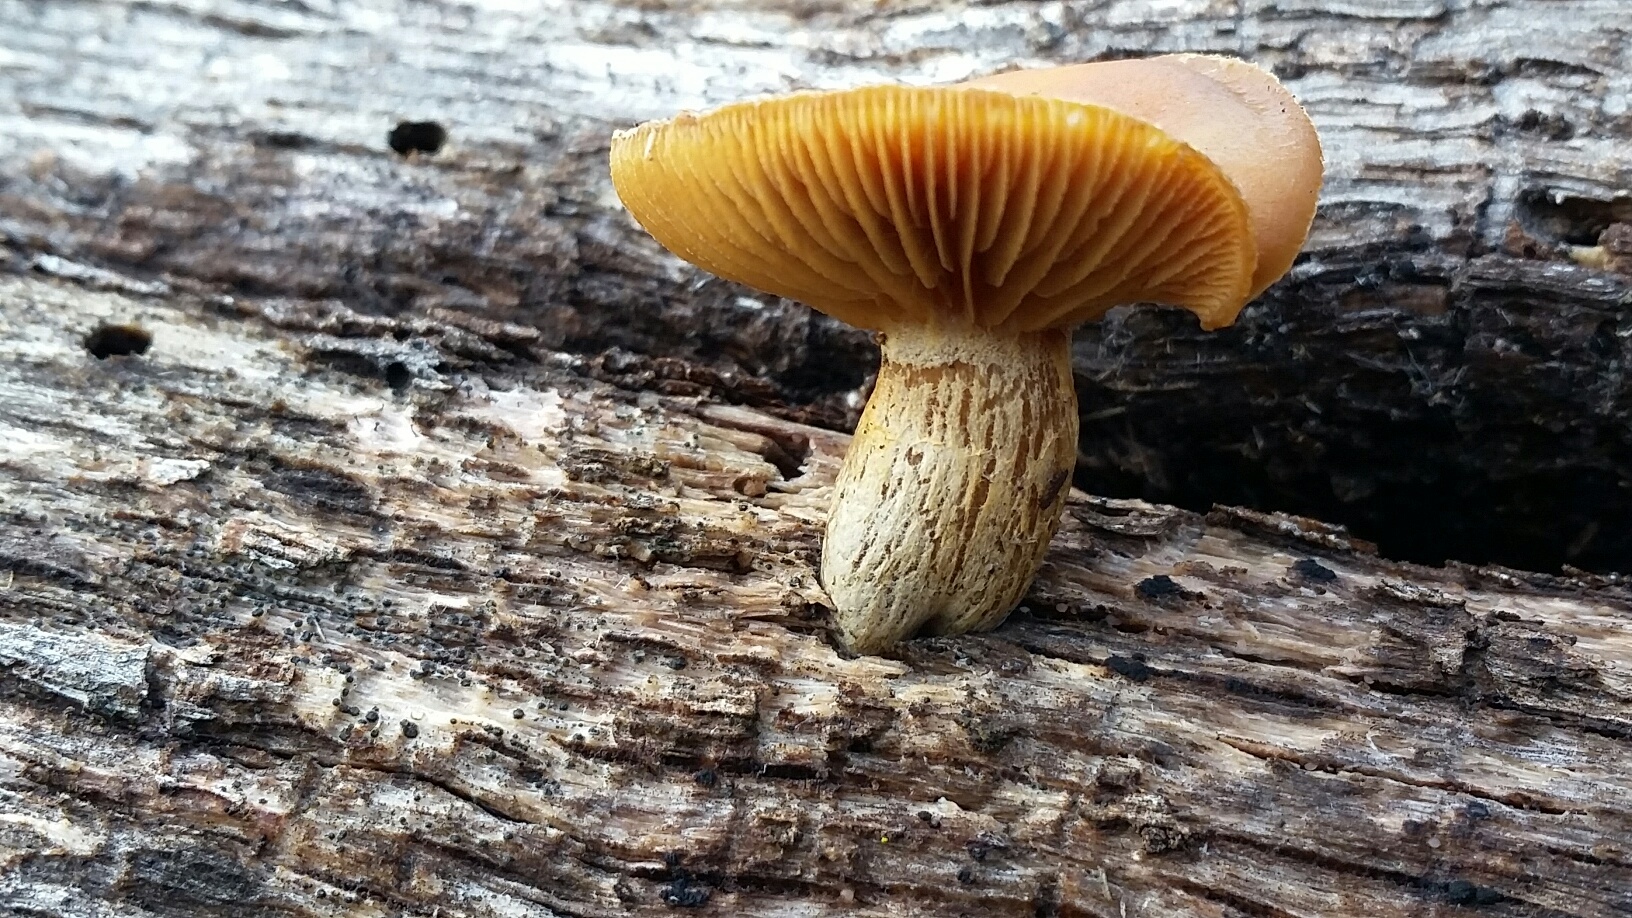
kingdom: Fungi
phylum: Basidiomycota
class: Agaricomycetes
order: Agaricales
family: Hymenogastraceae
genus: Galerina
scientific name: Galerina marginata
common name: Funeral bell
